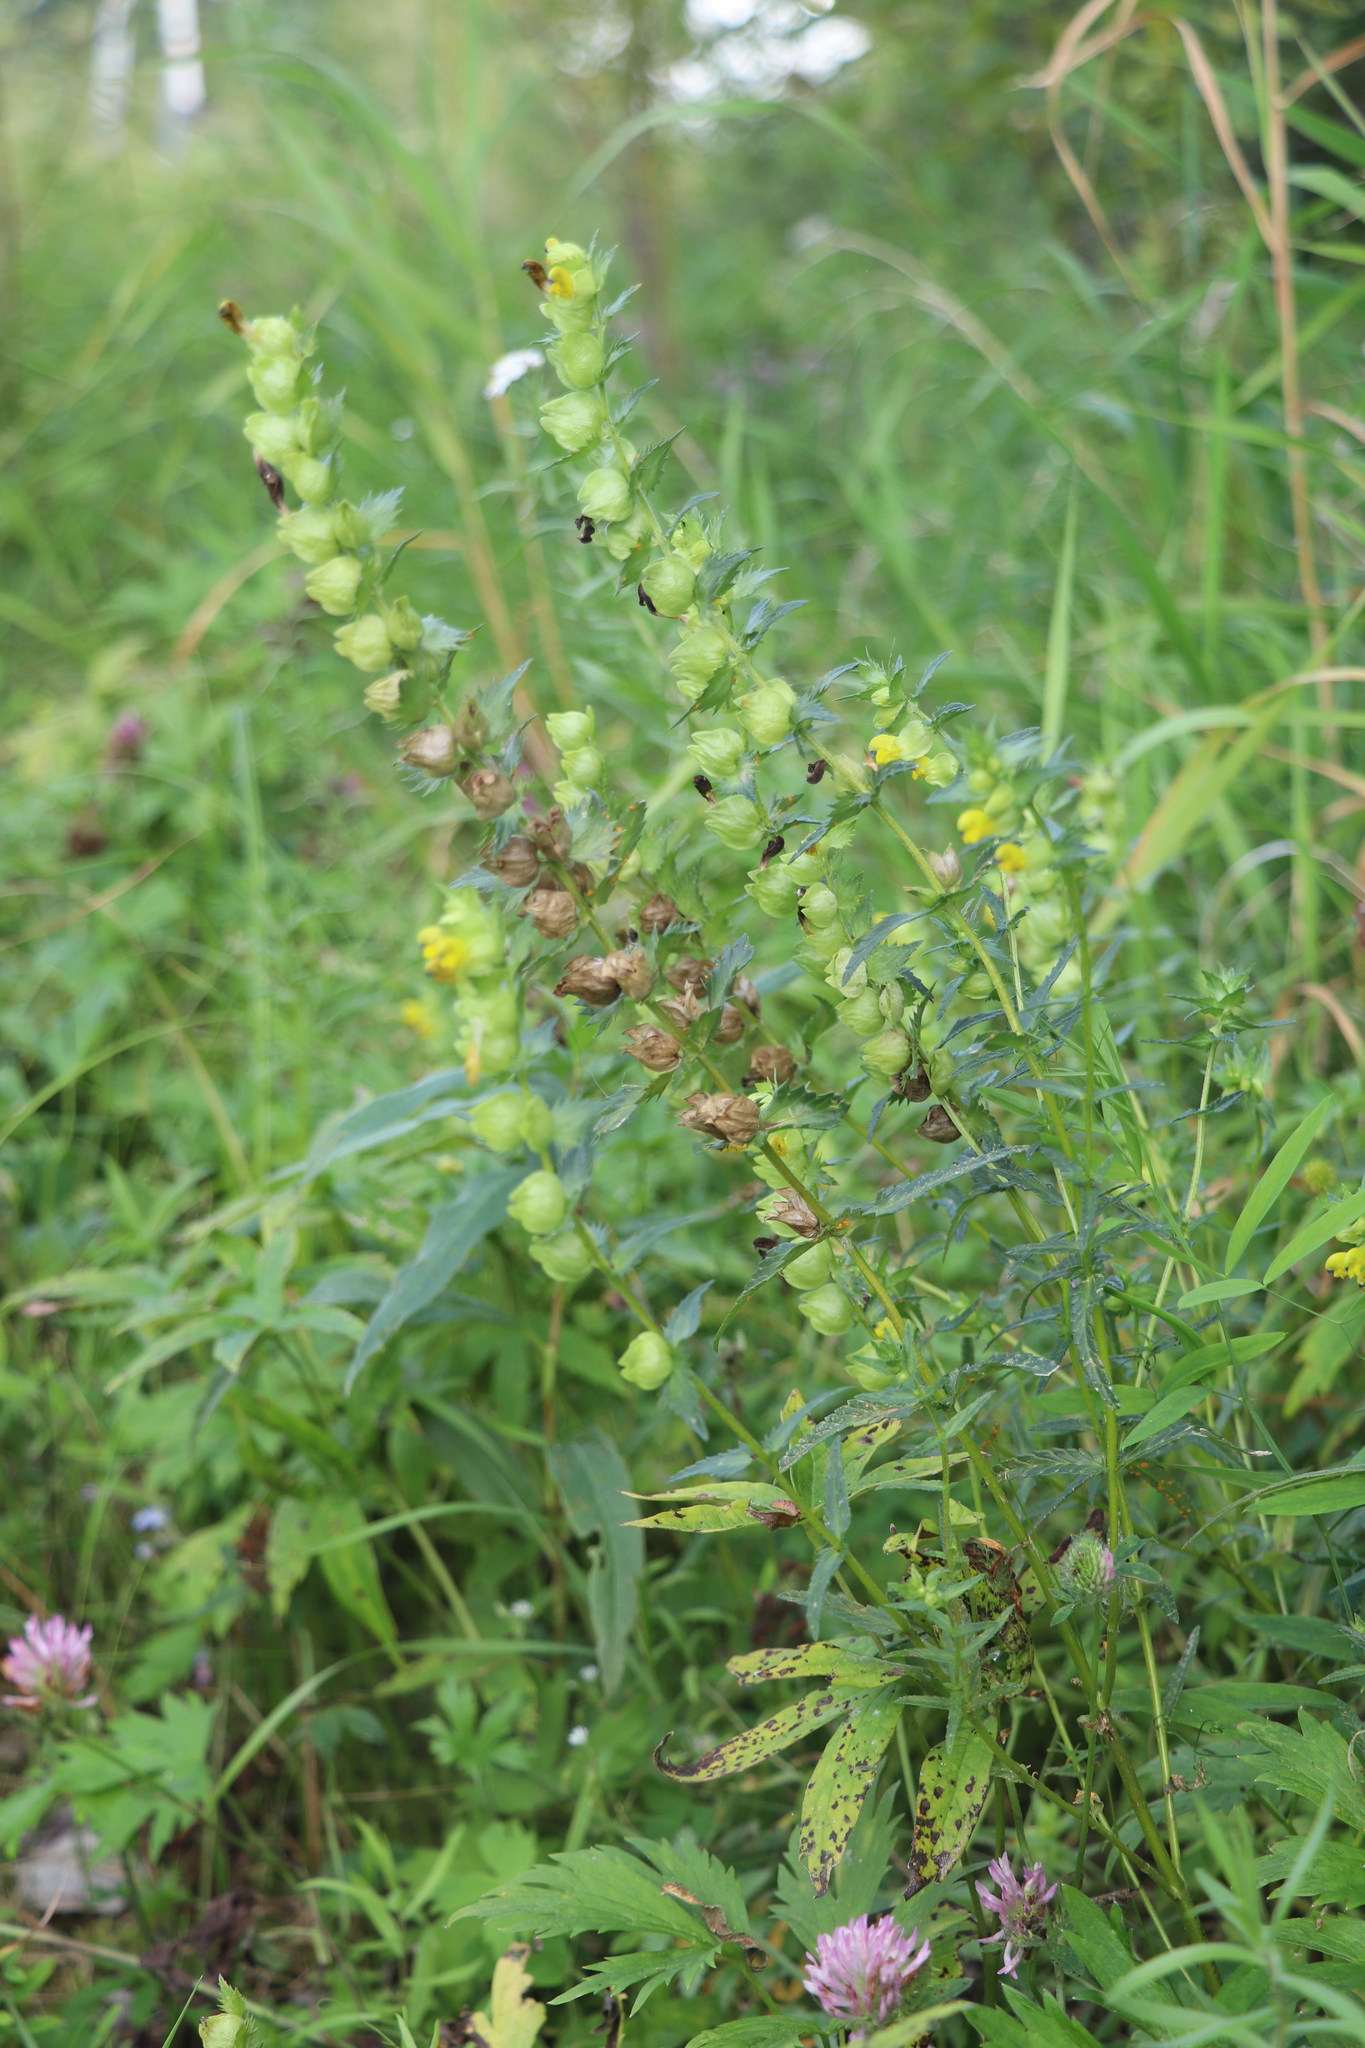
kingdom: Plantae
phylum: Tracheophyta
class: Magnoliopsida
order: Lamiales
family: Orobanchaceae
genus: Rhinanthus
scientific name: Rhinanthus serotinus
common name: Late-flowering yellow rattle
